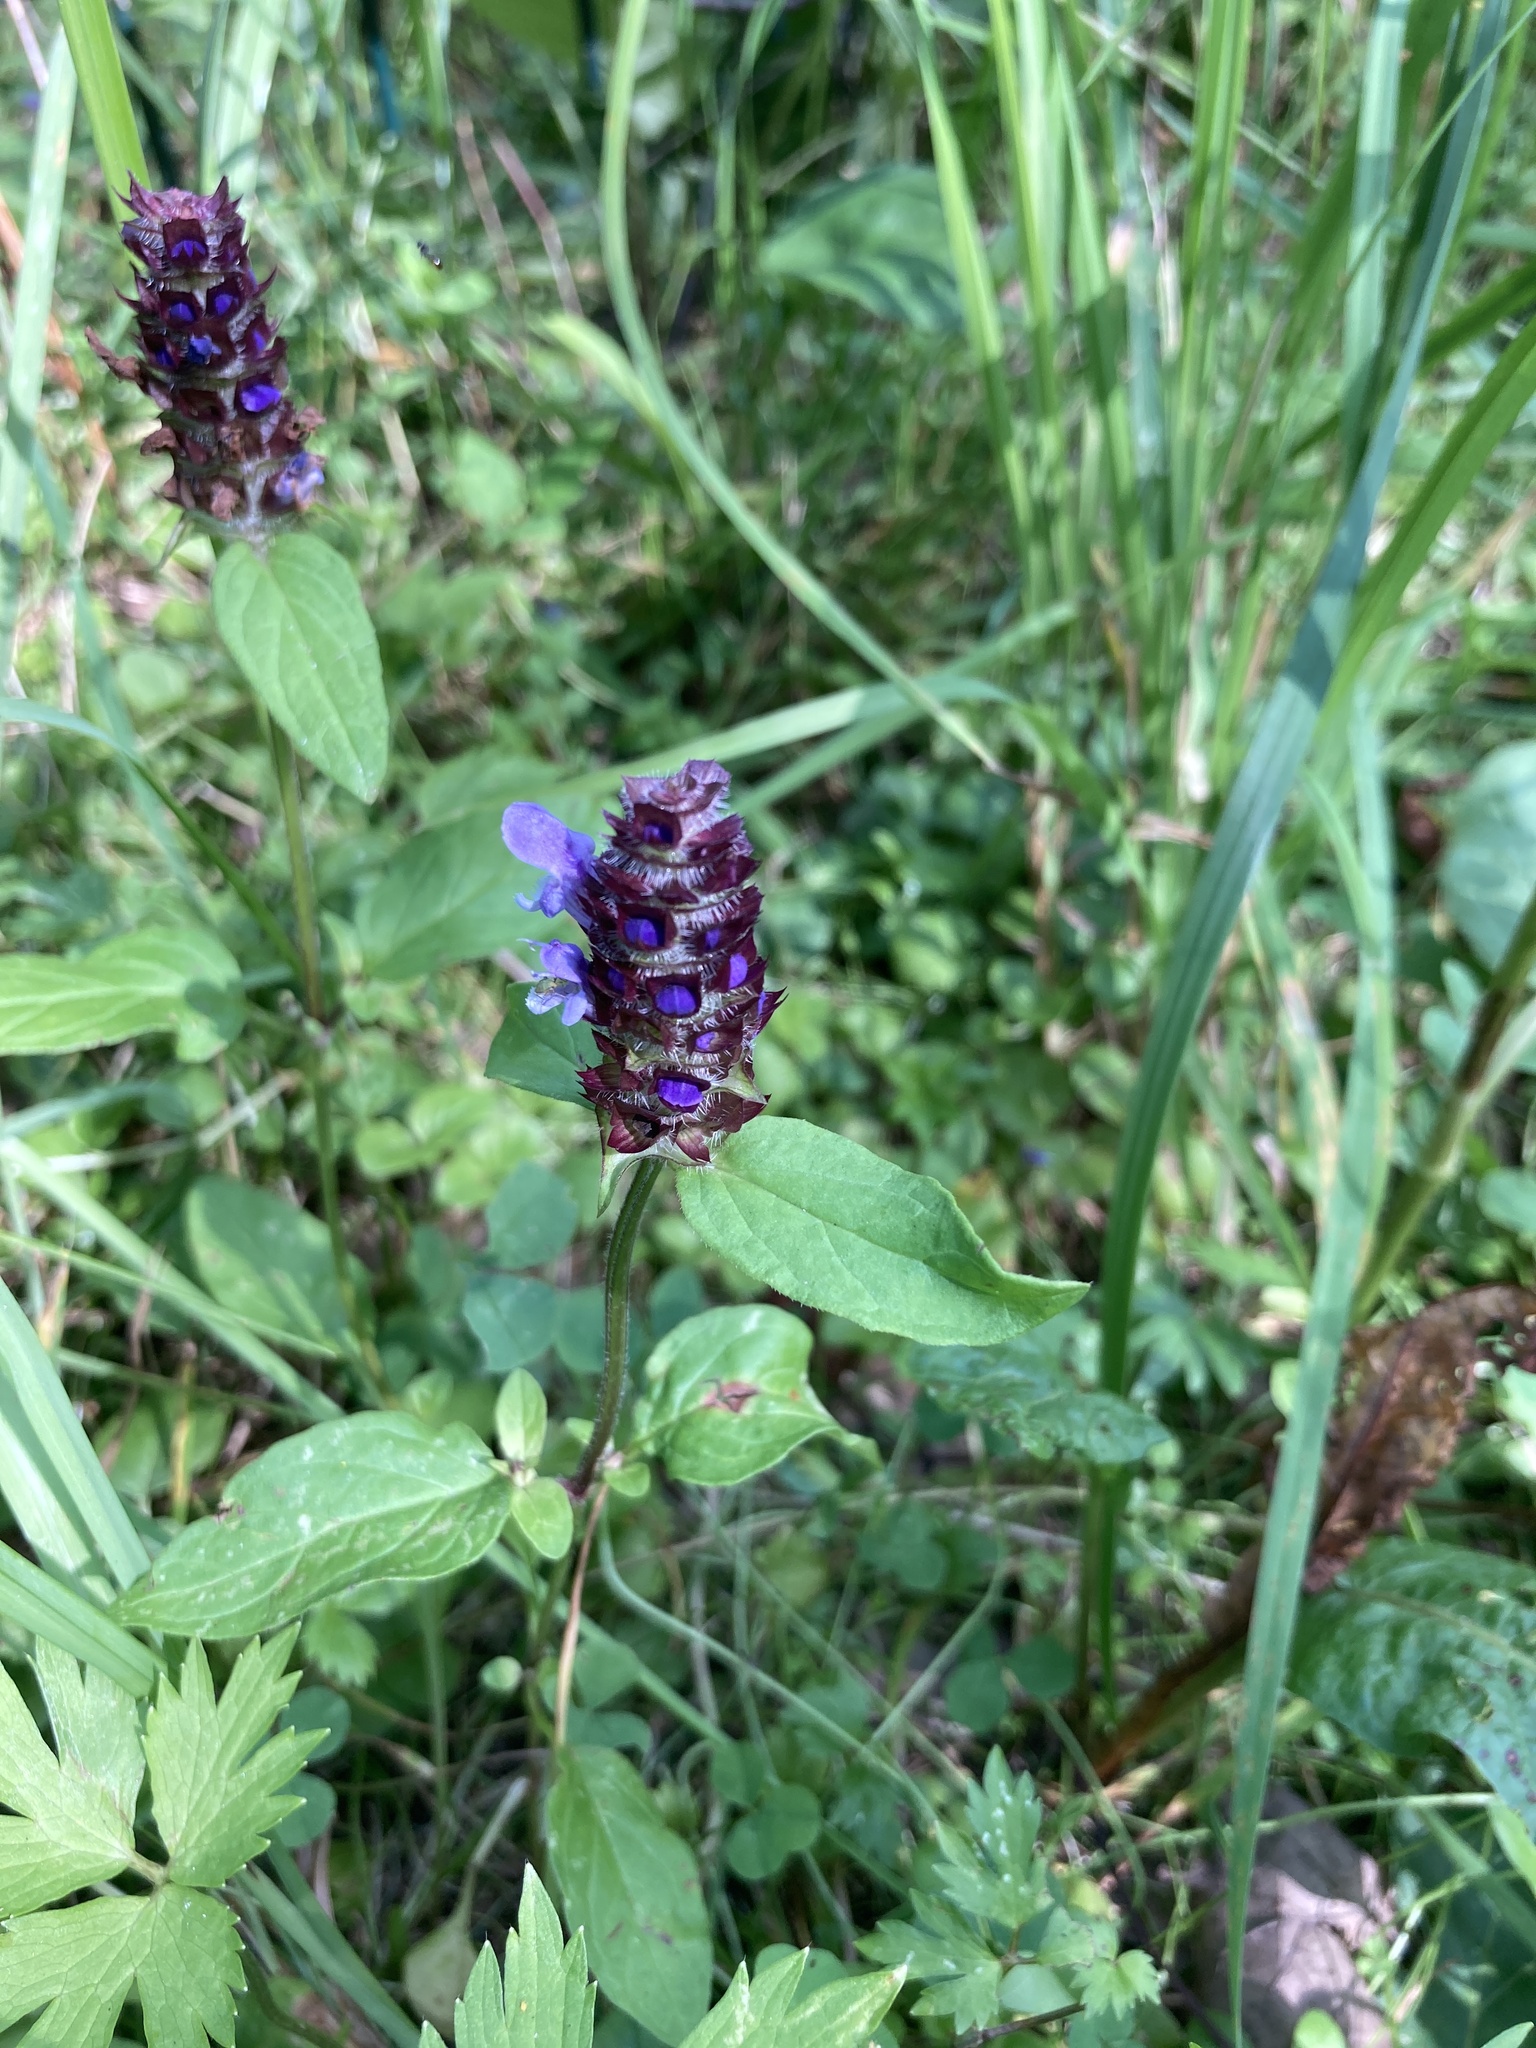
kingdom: Plantae
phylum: Tracheophyta
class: Magnoliopsida
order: Lamiales
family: Lamiaceae
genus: Prunella
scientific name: Prunella vulgaris
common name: Heal-all
